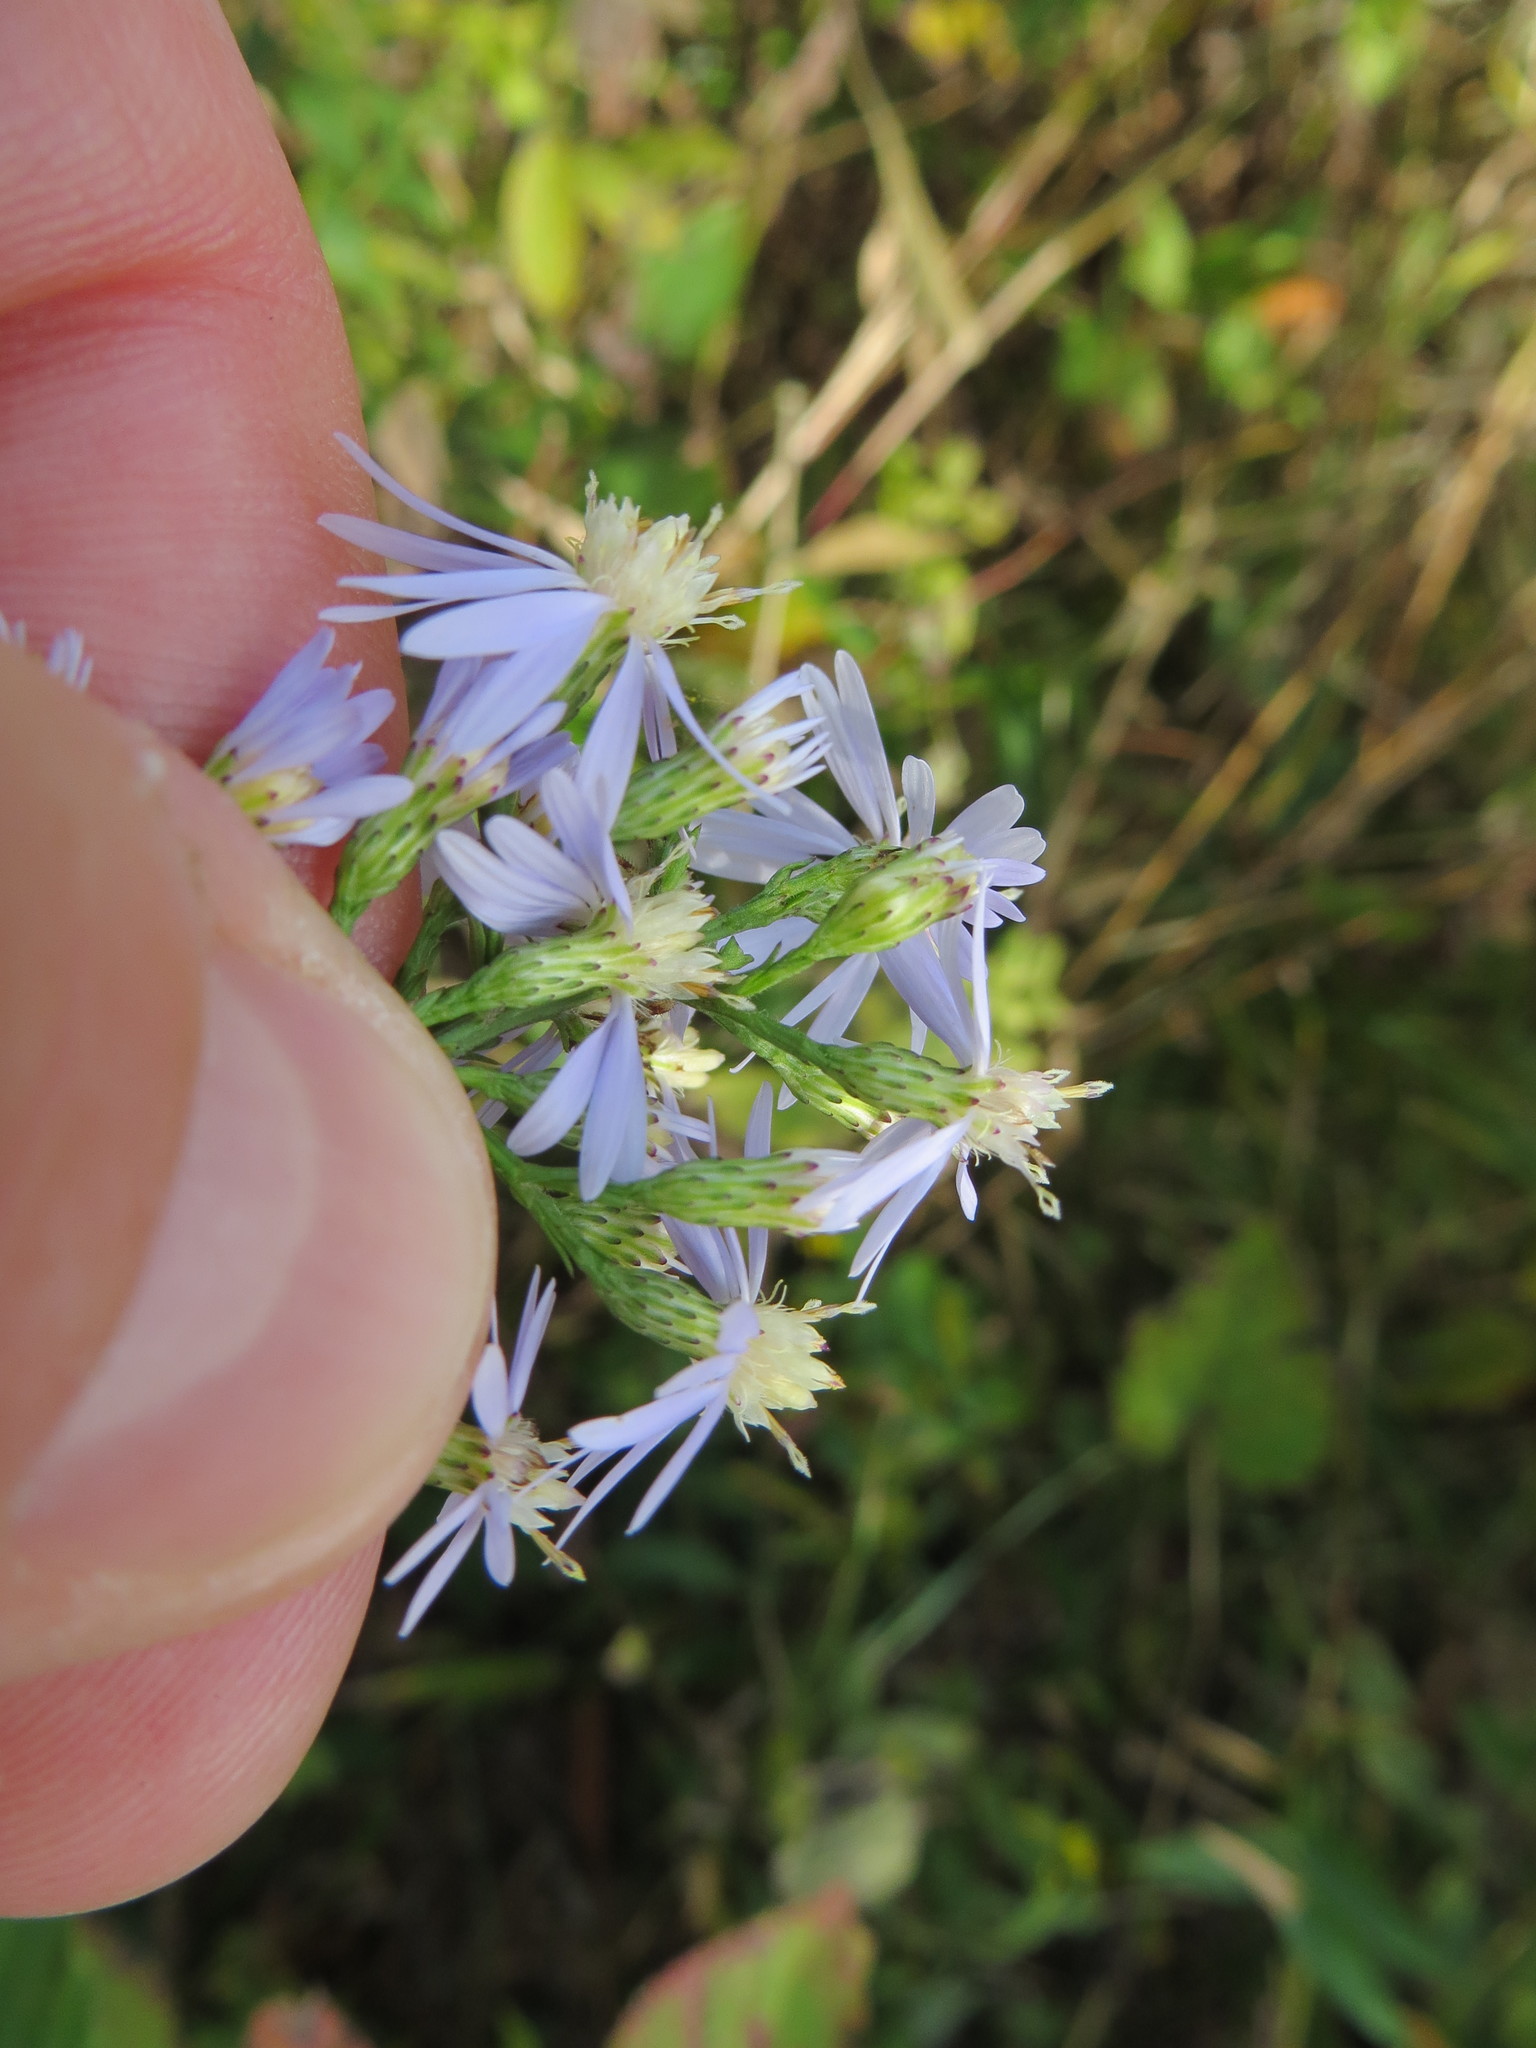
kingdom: Plantae
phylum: Tracheophyta
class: Magnoliopsida
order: Asterales
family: Asteraceae
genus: Symphyotrichum
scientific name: Symphyotrichum cordifolium
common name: Beeweed
